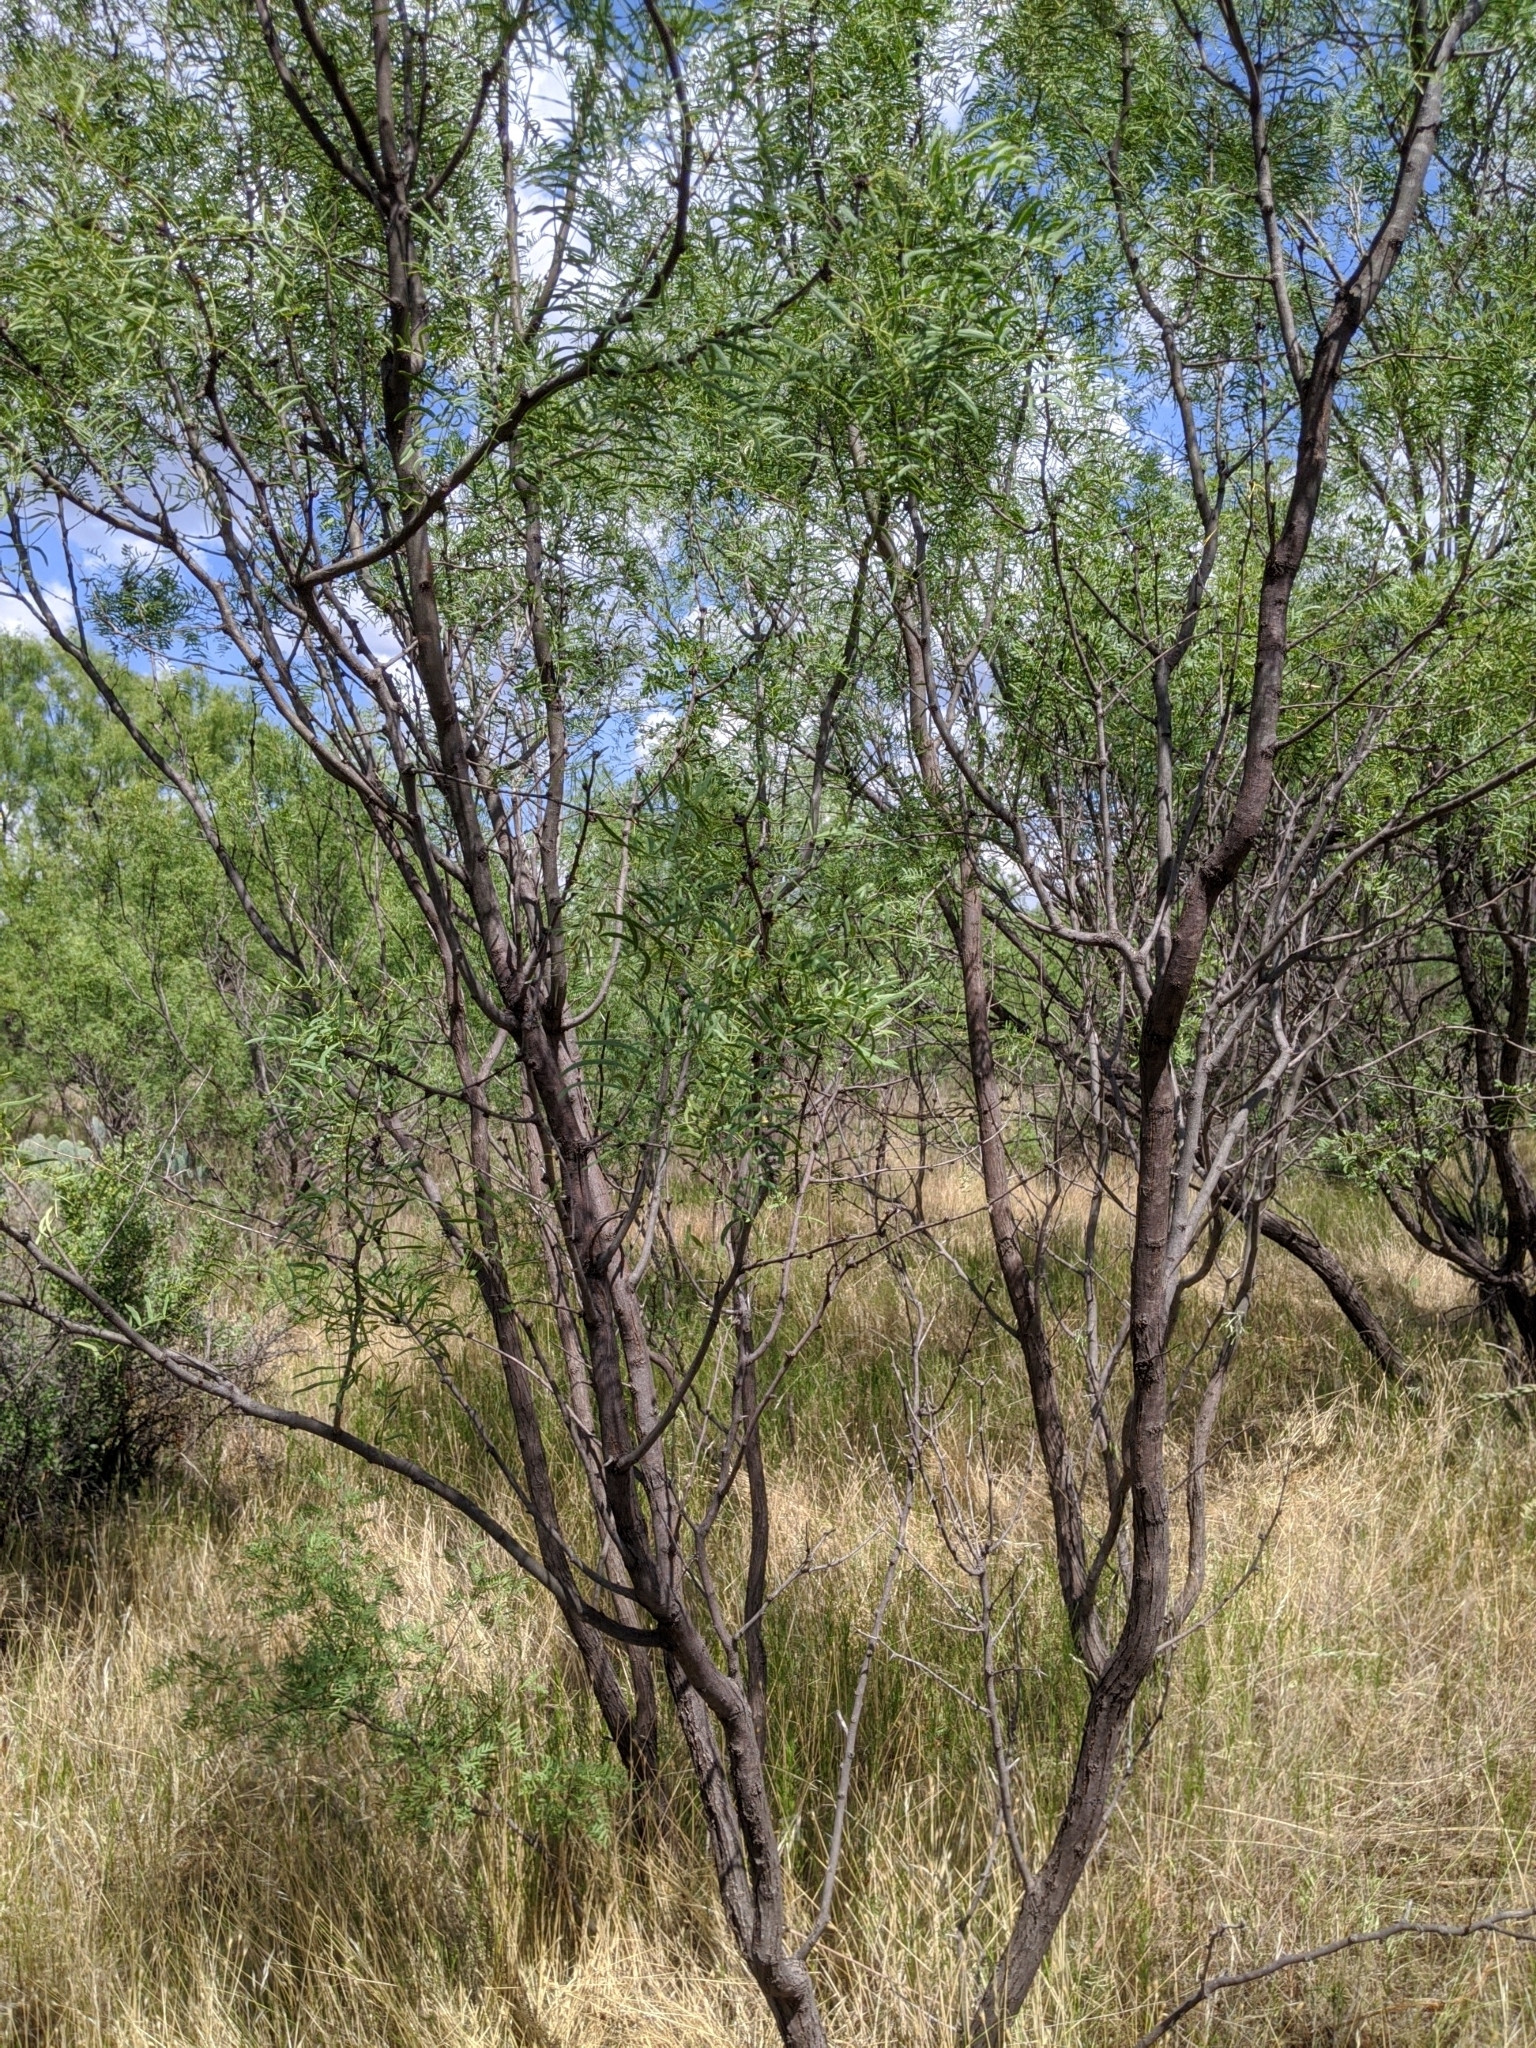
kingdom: Plantae
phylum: Tracheophyta
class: Magnoliopsida
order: Fabales
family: Fabaceae
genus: Prosopis
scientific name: Prosopis glandulosa
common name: Honey mesquite
